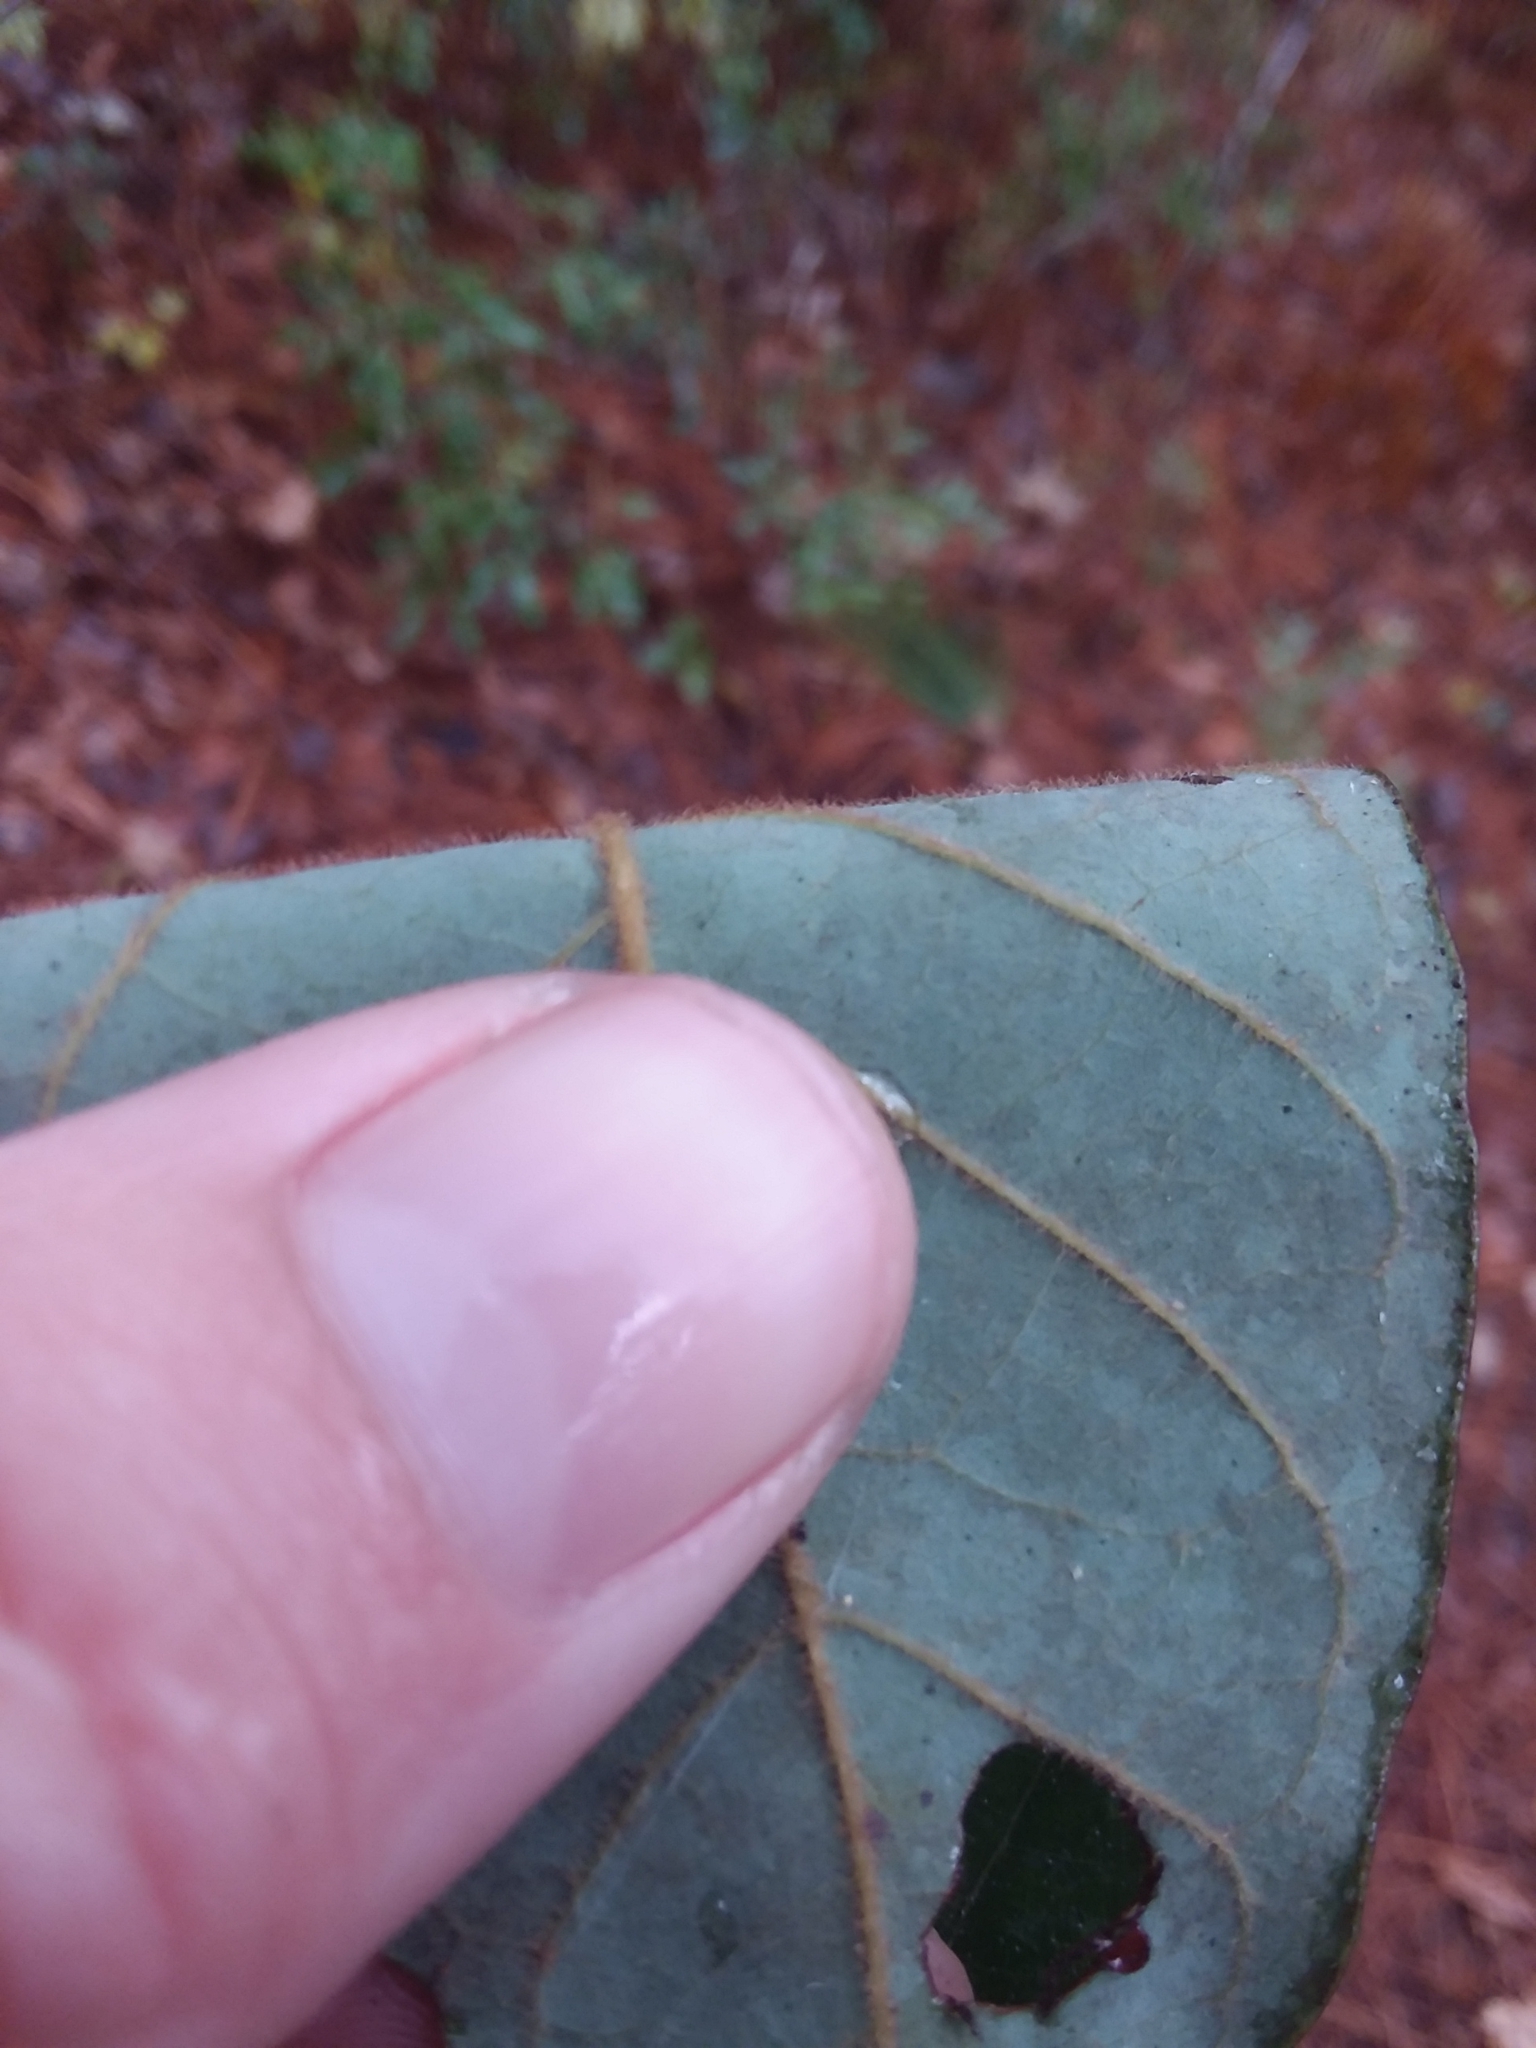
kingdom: Plantae
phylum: Tracheophyta
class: Magnoliopsida
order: Laurales
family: Lauraceae
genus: Persea
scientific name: Persea palustris
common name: Swampbay
